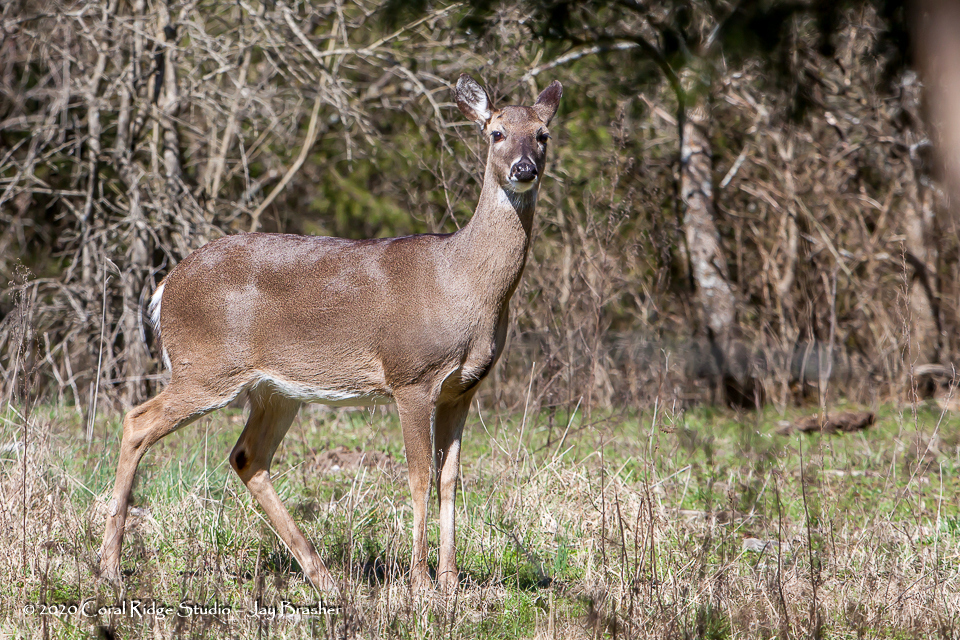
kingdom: Animalia
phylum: Chordata
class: Mammalia
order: Artiodactyla
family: Cervidae
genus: Odocoileus
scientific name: Odocoileus virginianus
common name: White-tailed deer
